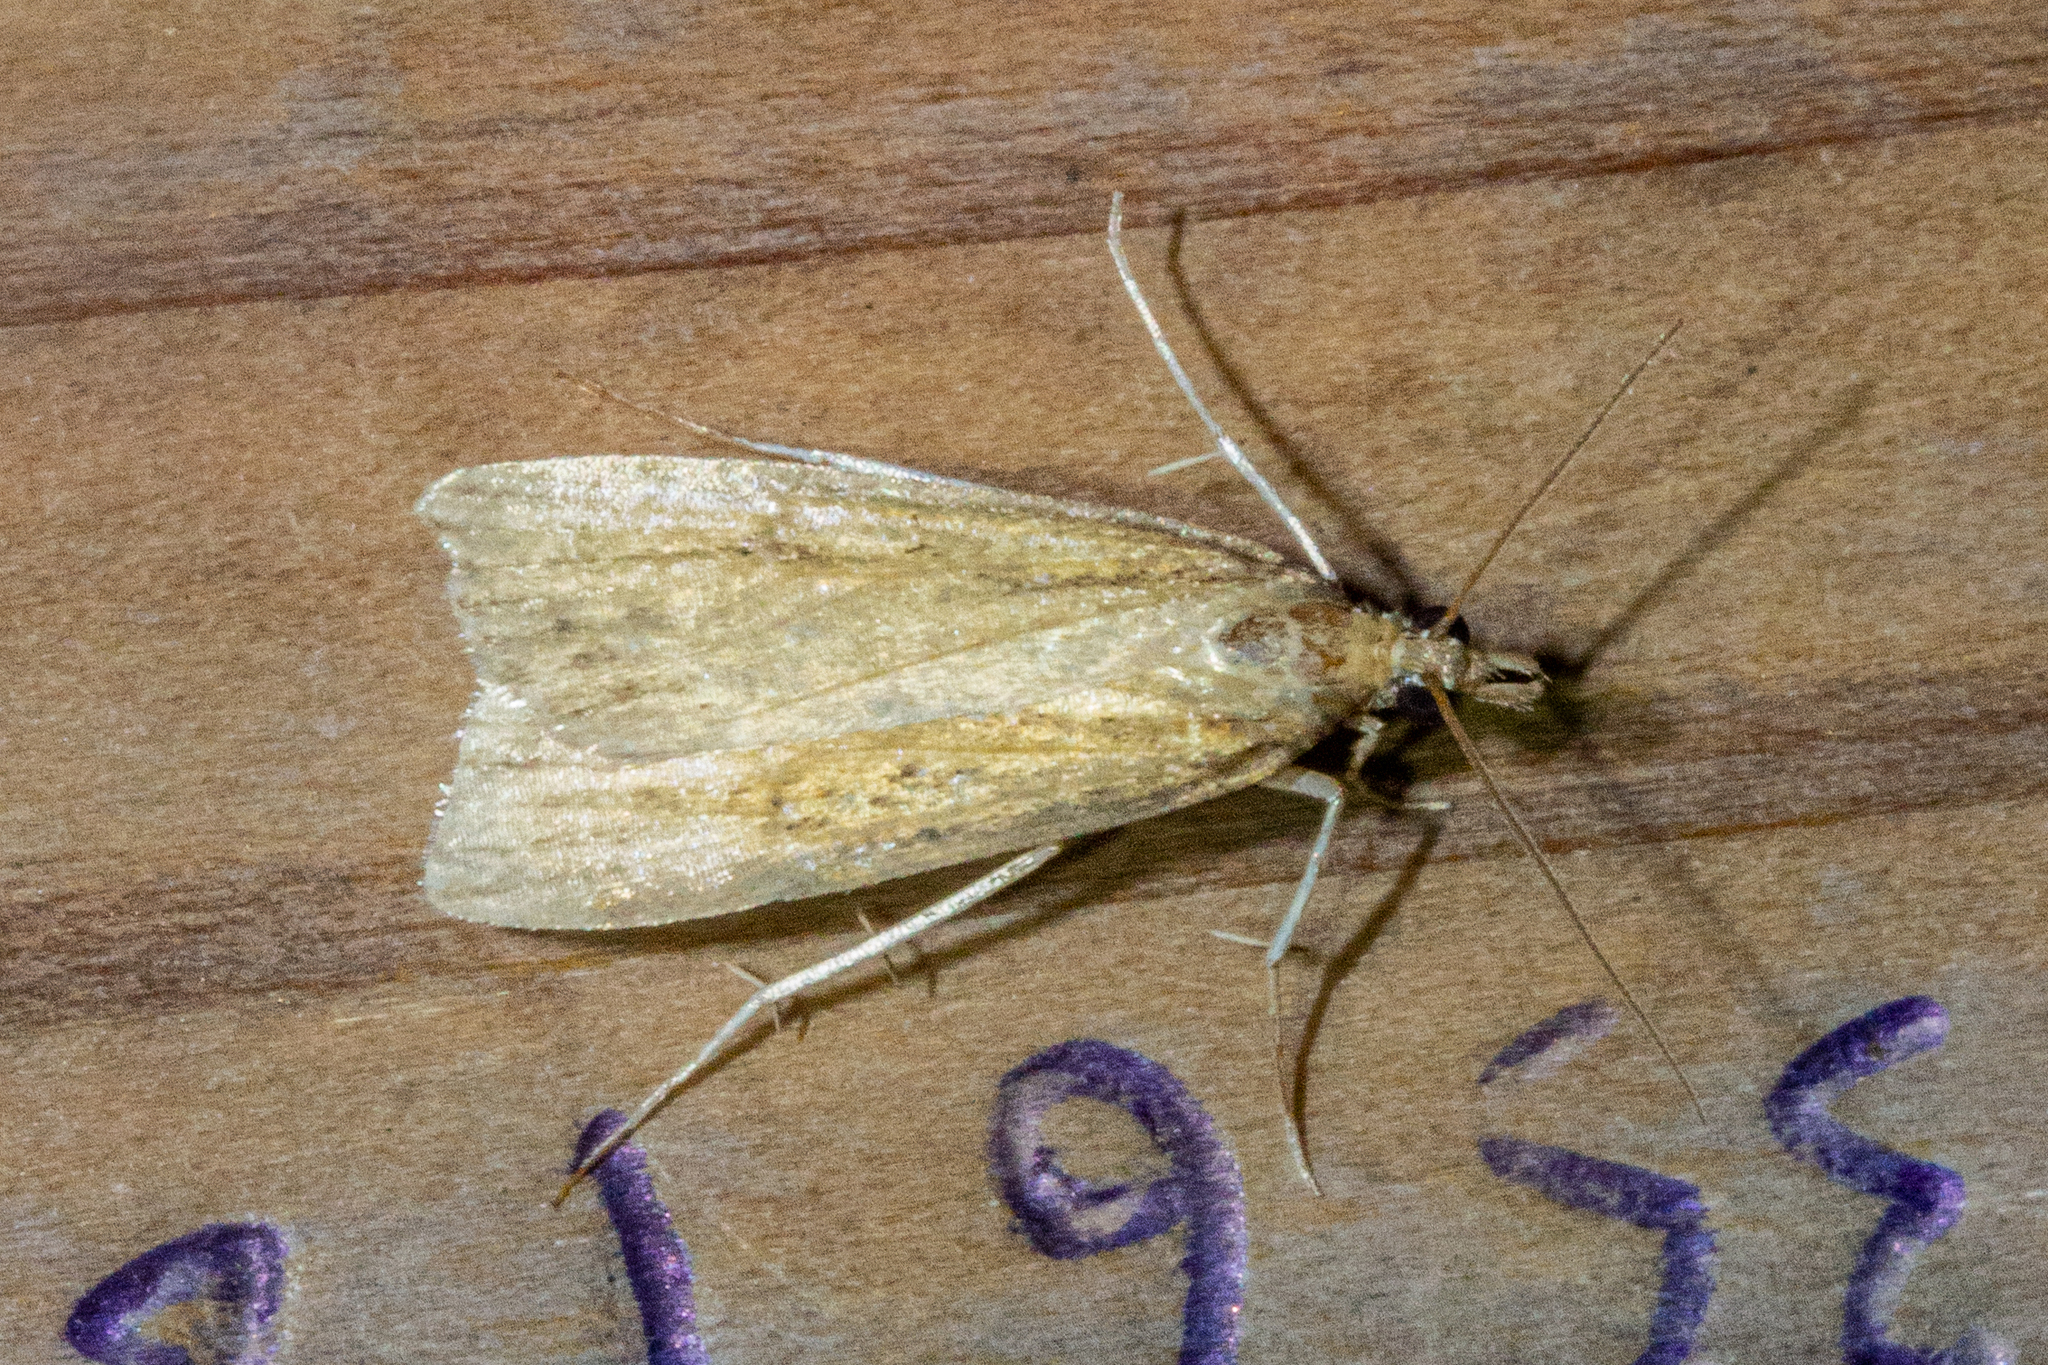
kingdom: Animalia
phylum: Arthropoda
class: Insecta
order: Lepidoptera
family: Crambidae
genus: Eudonia
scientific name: Eudonia sabulosella
